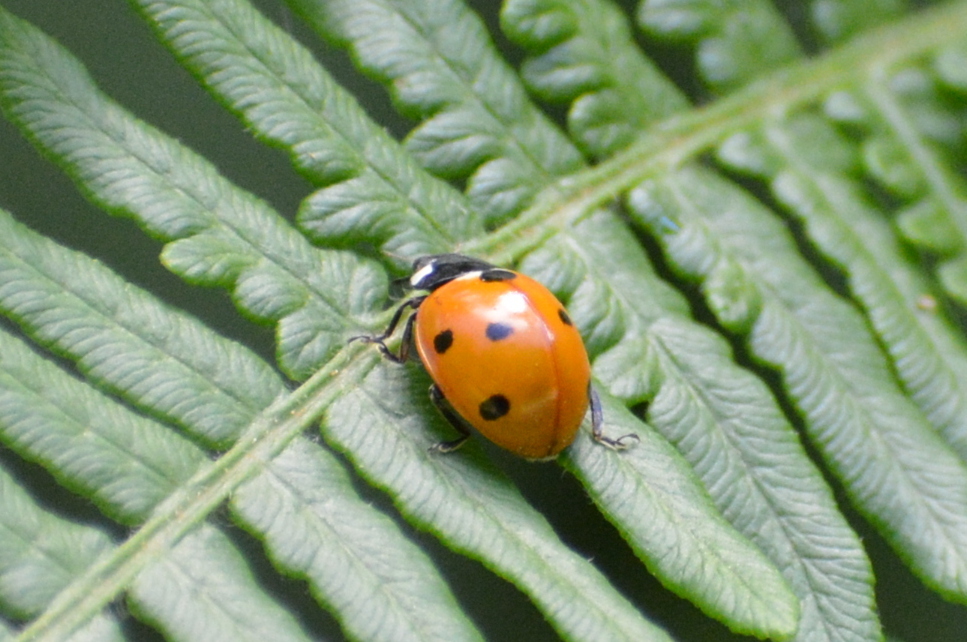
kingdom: Animalia
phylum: Arthropoda
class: Insecta
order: Coleoptera
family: Coccinellidae
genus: Coccinella
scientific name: Coccinella septempunctata
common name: Sevenspotted lady beetle
